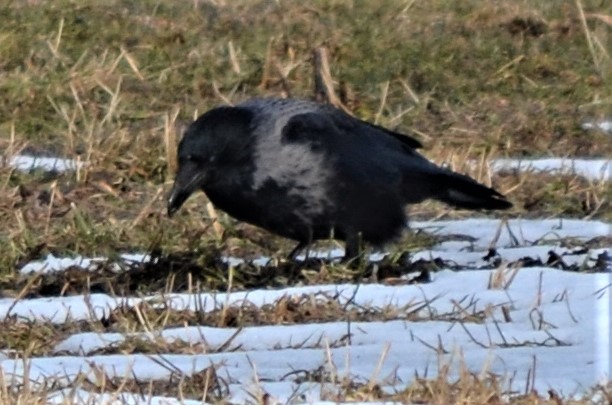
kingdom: Animalia
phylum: Chordata
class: Aves
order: Passeriformes
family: Corvidae
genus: Corvus
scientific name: Corvus
